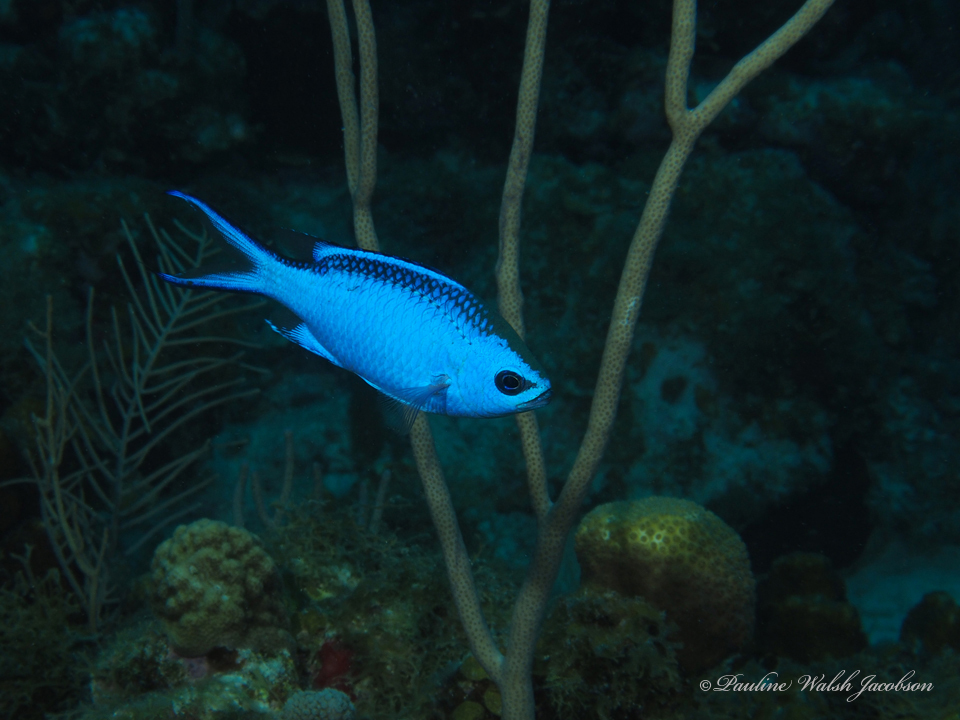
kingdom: Animalia
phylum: Chordata
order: Perciformes
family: Pomacentridae
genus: Chromis
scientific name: Chromis cyanea
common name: Blue chromis
